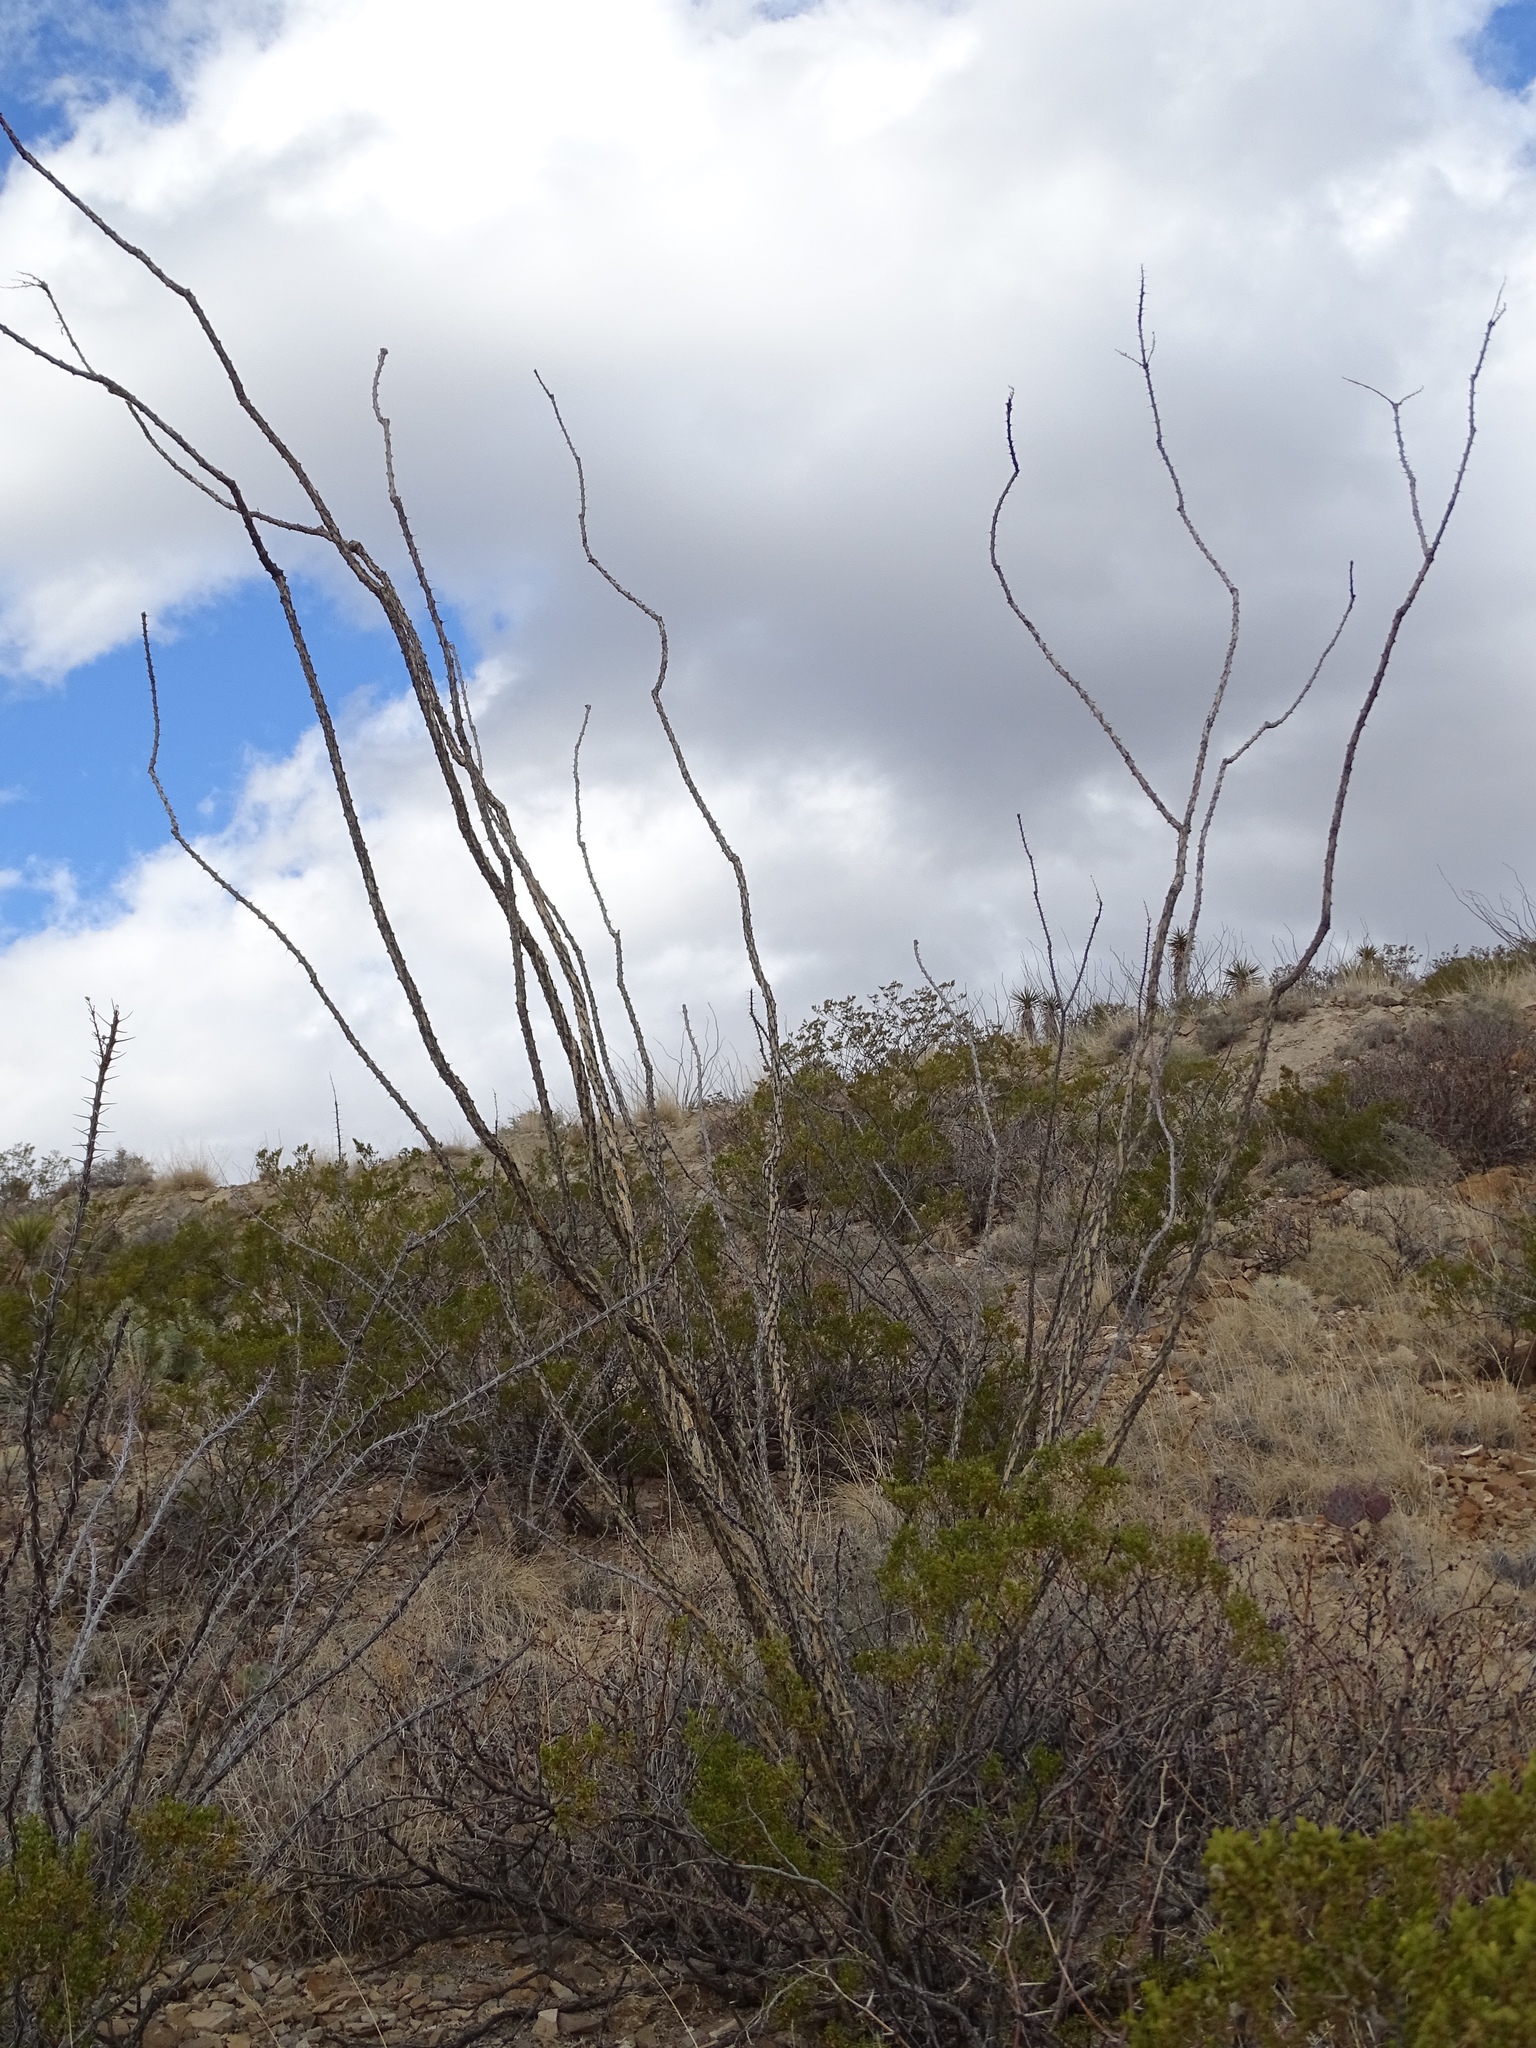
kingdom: Plantae
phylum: Tracheophyta
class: Magnoliopsida
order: Ericales
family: Fouquieriaceae
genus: Fouquieria
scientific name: Fouquieria splendens
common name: Vine-cactus
